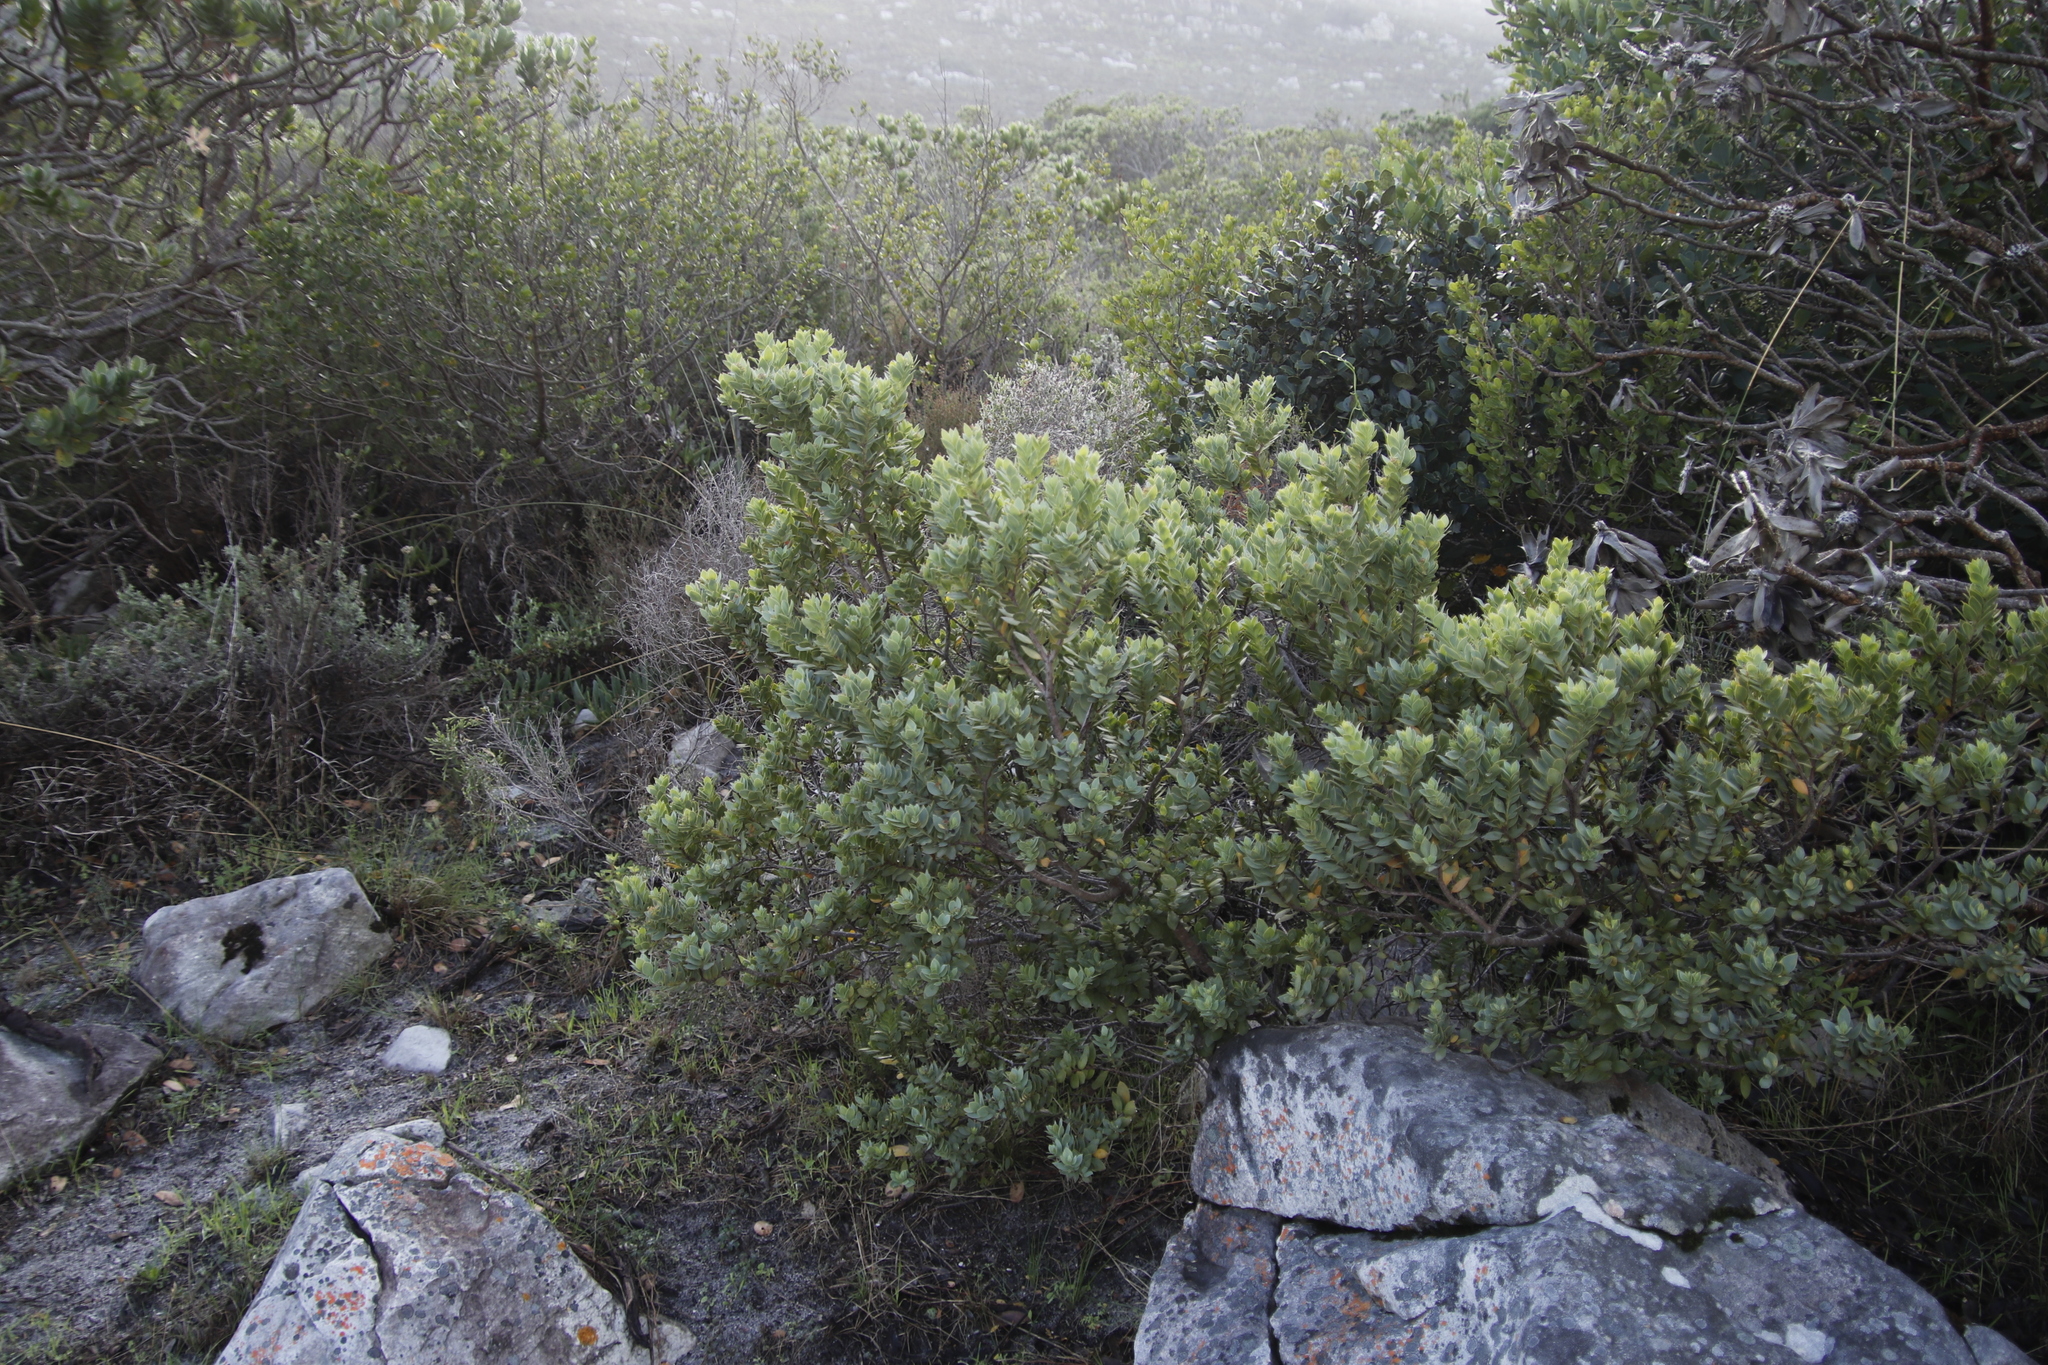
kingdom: Plantae
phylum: Tracheophyta
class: Magnoliopsida
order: Santalales
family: Santalaceae
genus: Osyris
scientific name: Osyris compressa
